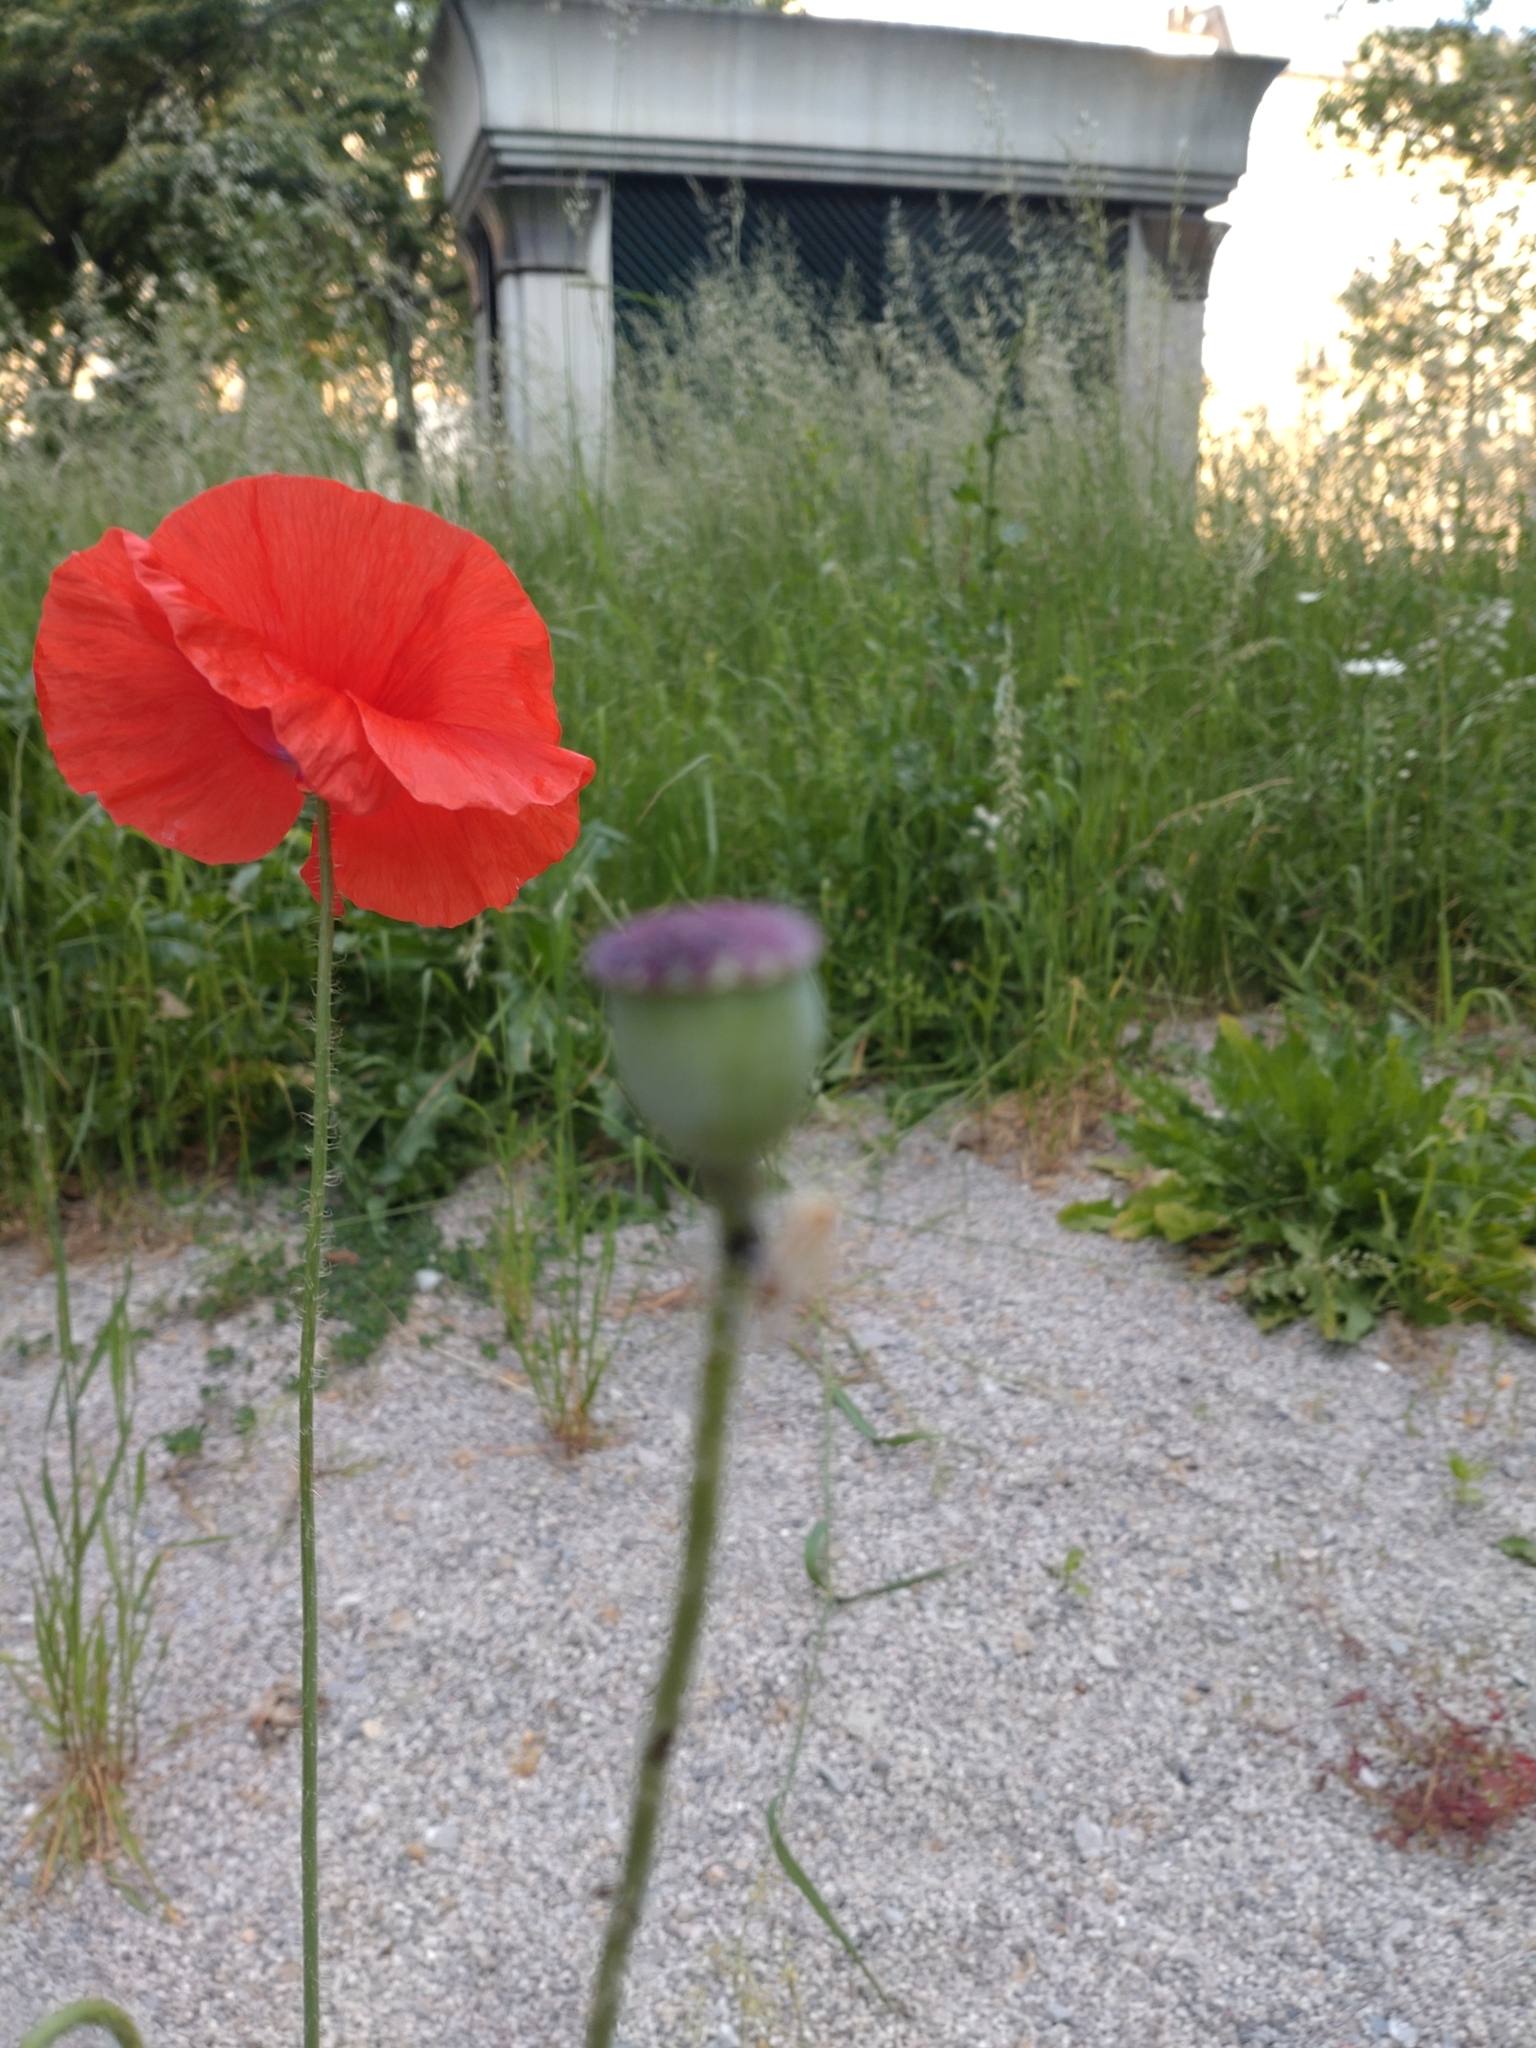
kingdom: Plantae
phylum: Tracheophyta
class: Magnoliopsida
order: Ranunculales
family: Papaveraceae
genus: Papaver
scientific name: Papaver rhoeas
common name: Corn poppy
